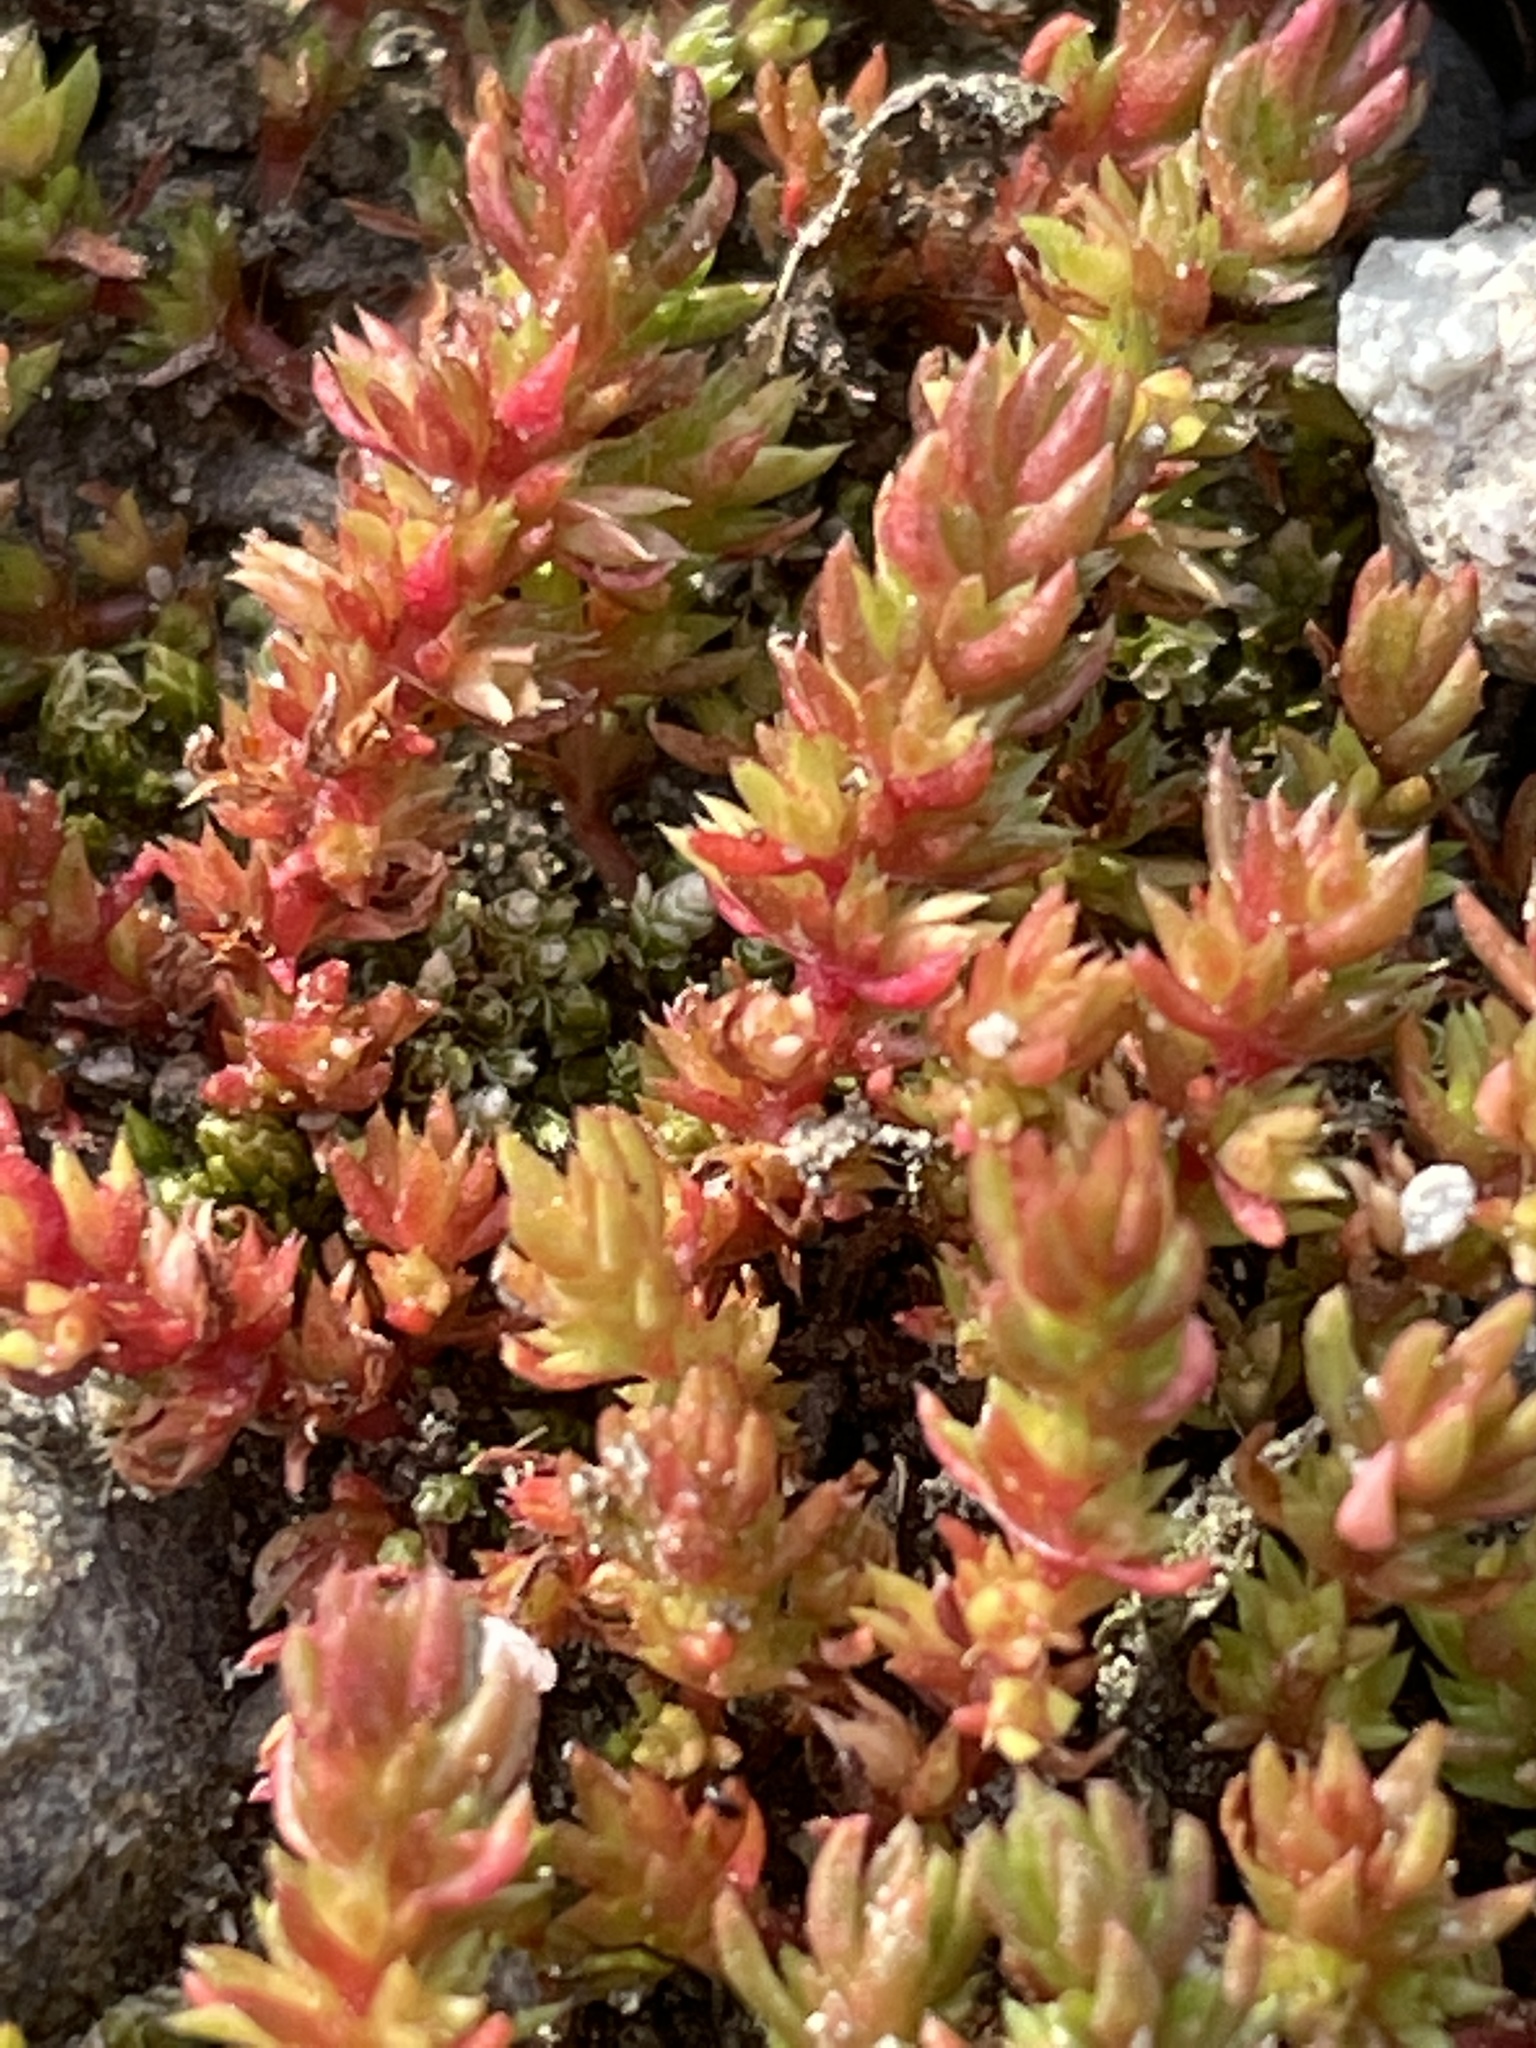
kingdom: Plantae
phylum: Tracheophyta
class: Magnoliopsida
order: Saxifragales
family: Crassulaceae
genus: Crassula
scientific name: Crassula tillaea
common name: Mossy stonecrop
